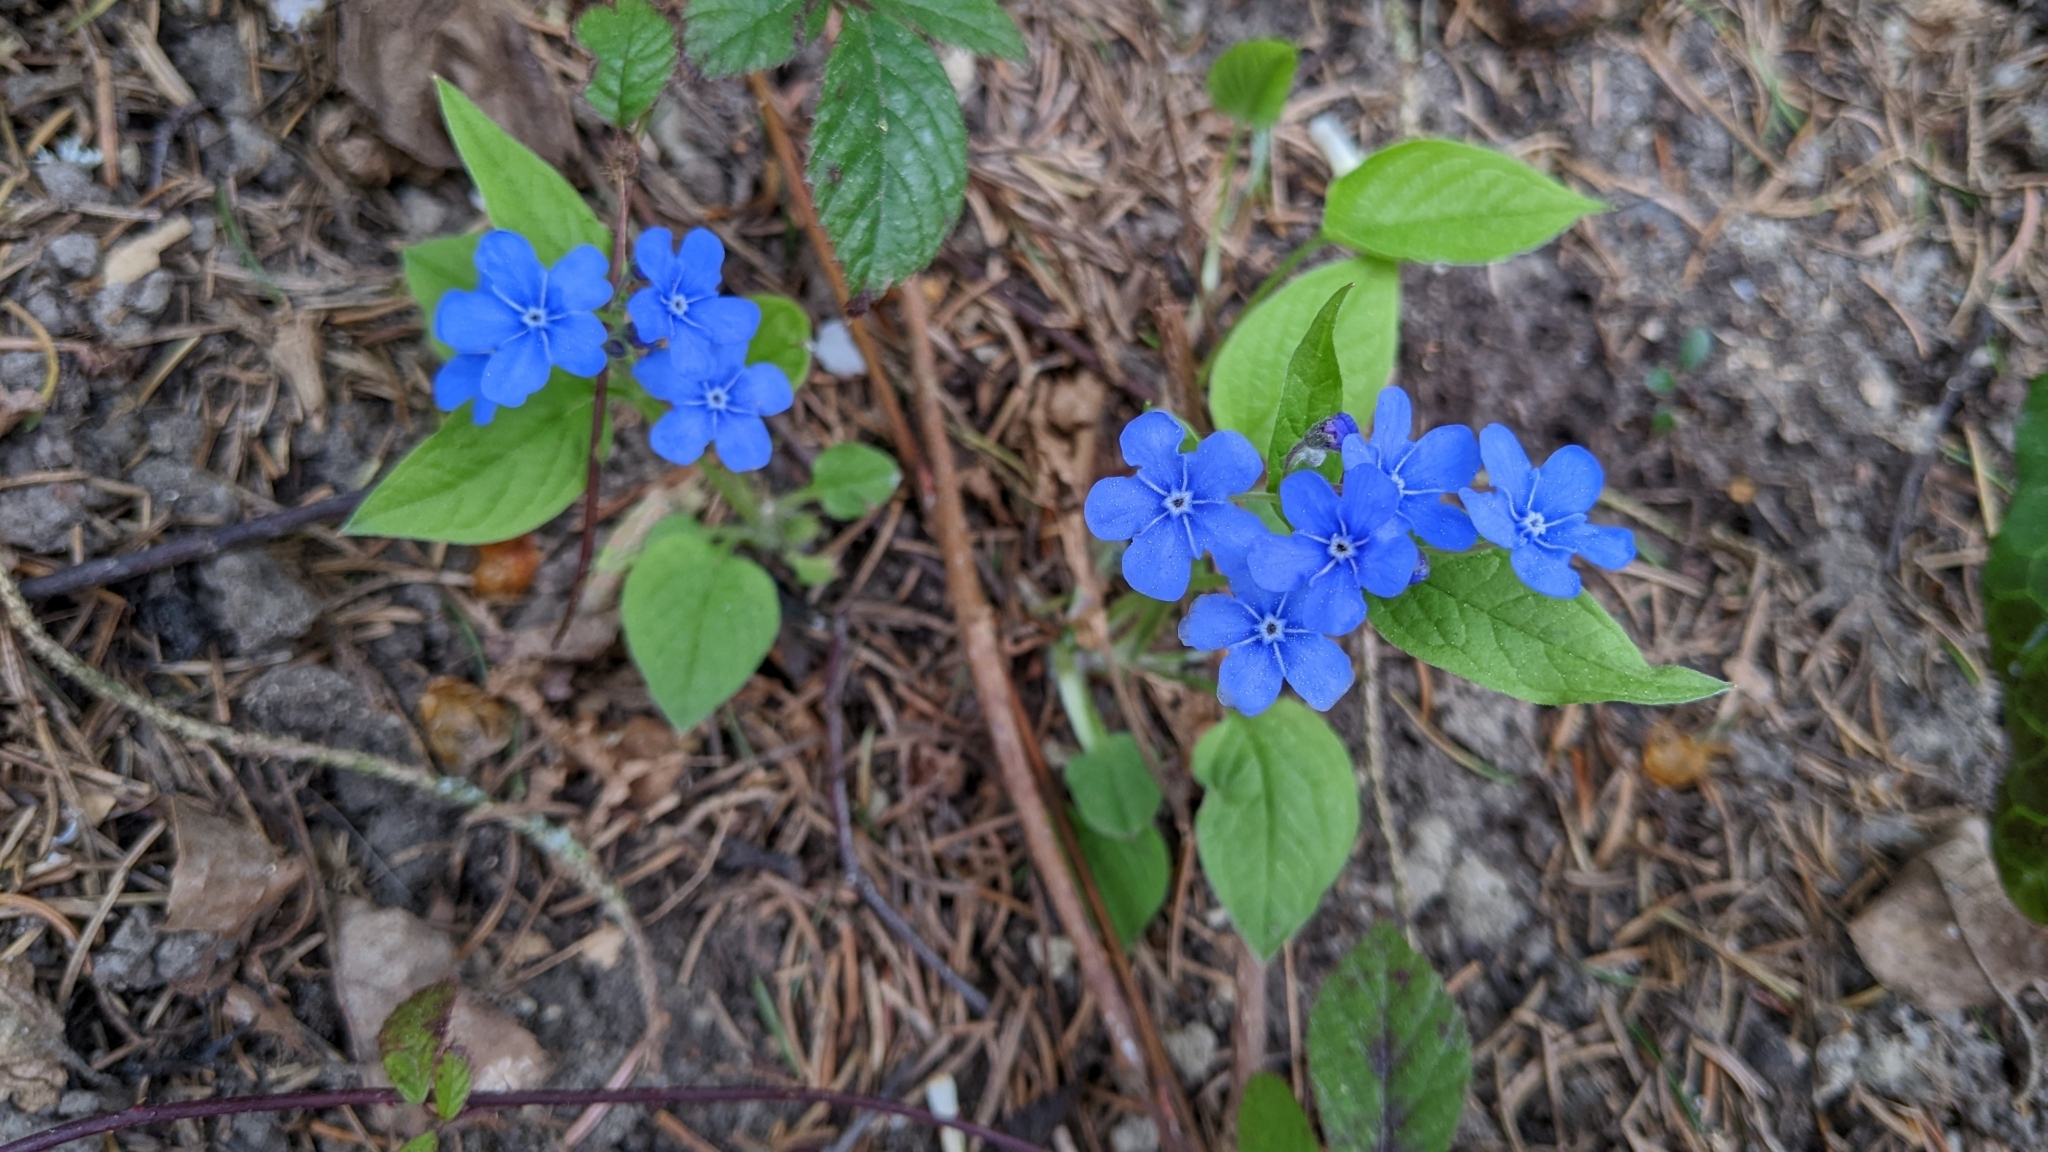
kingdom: Plantae
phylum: Tracheophyta
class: Magnoliopsida
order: Boraginales
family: Boraginaceae
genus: Omphalodes
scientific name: Omphalodes verna
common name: Blue-eyed-mary
